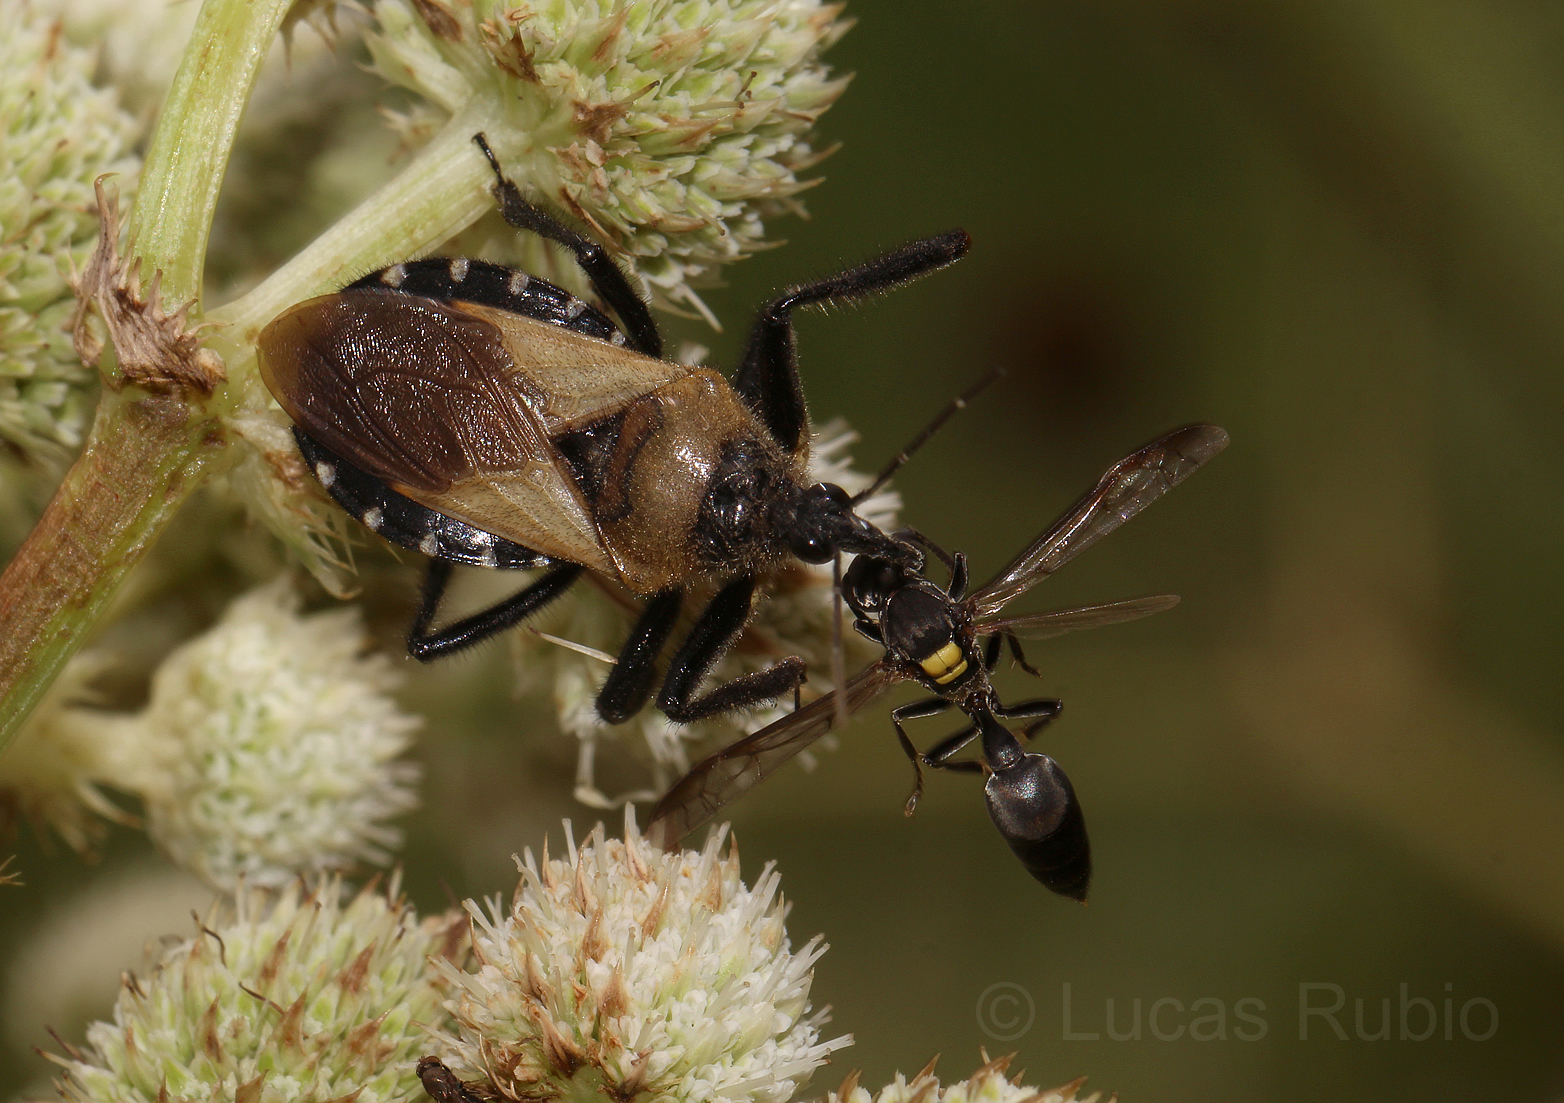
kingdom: Animalia
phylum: Arthropoda
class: Insecta
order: Hemiptera
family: Reduviidae
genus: Apiomerus
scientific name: Apiomerus barbiellinii
